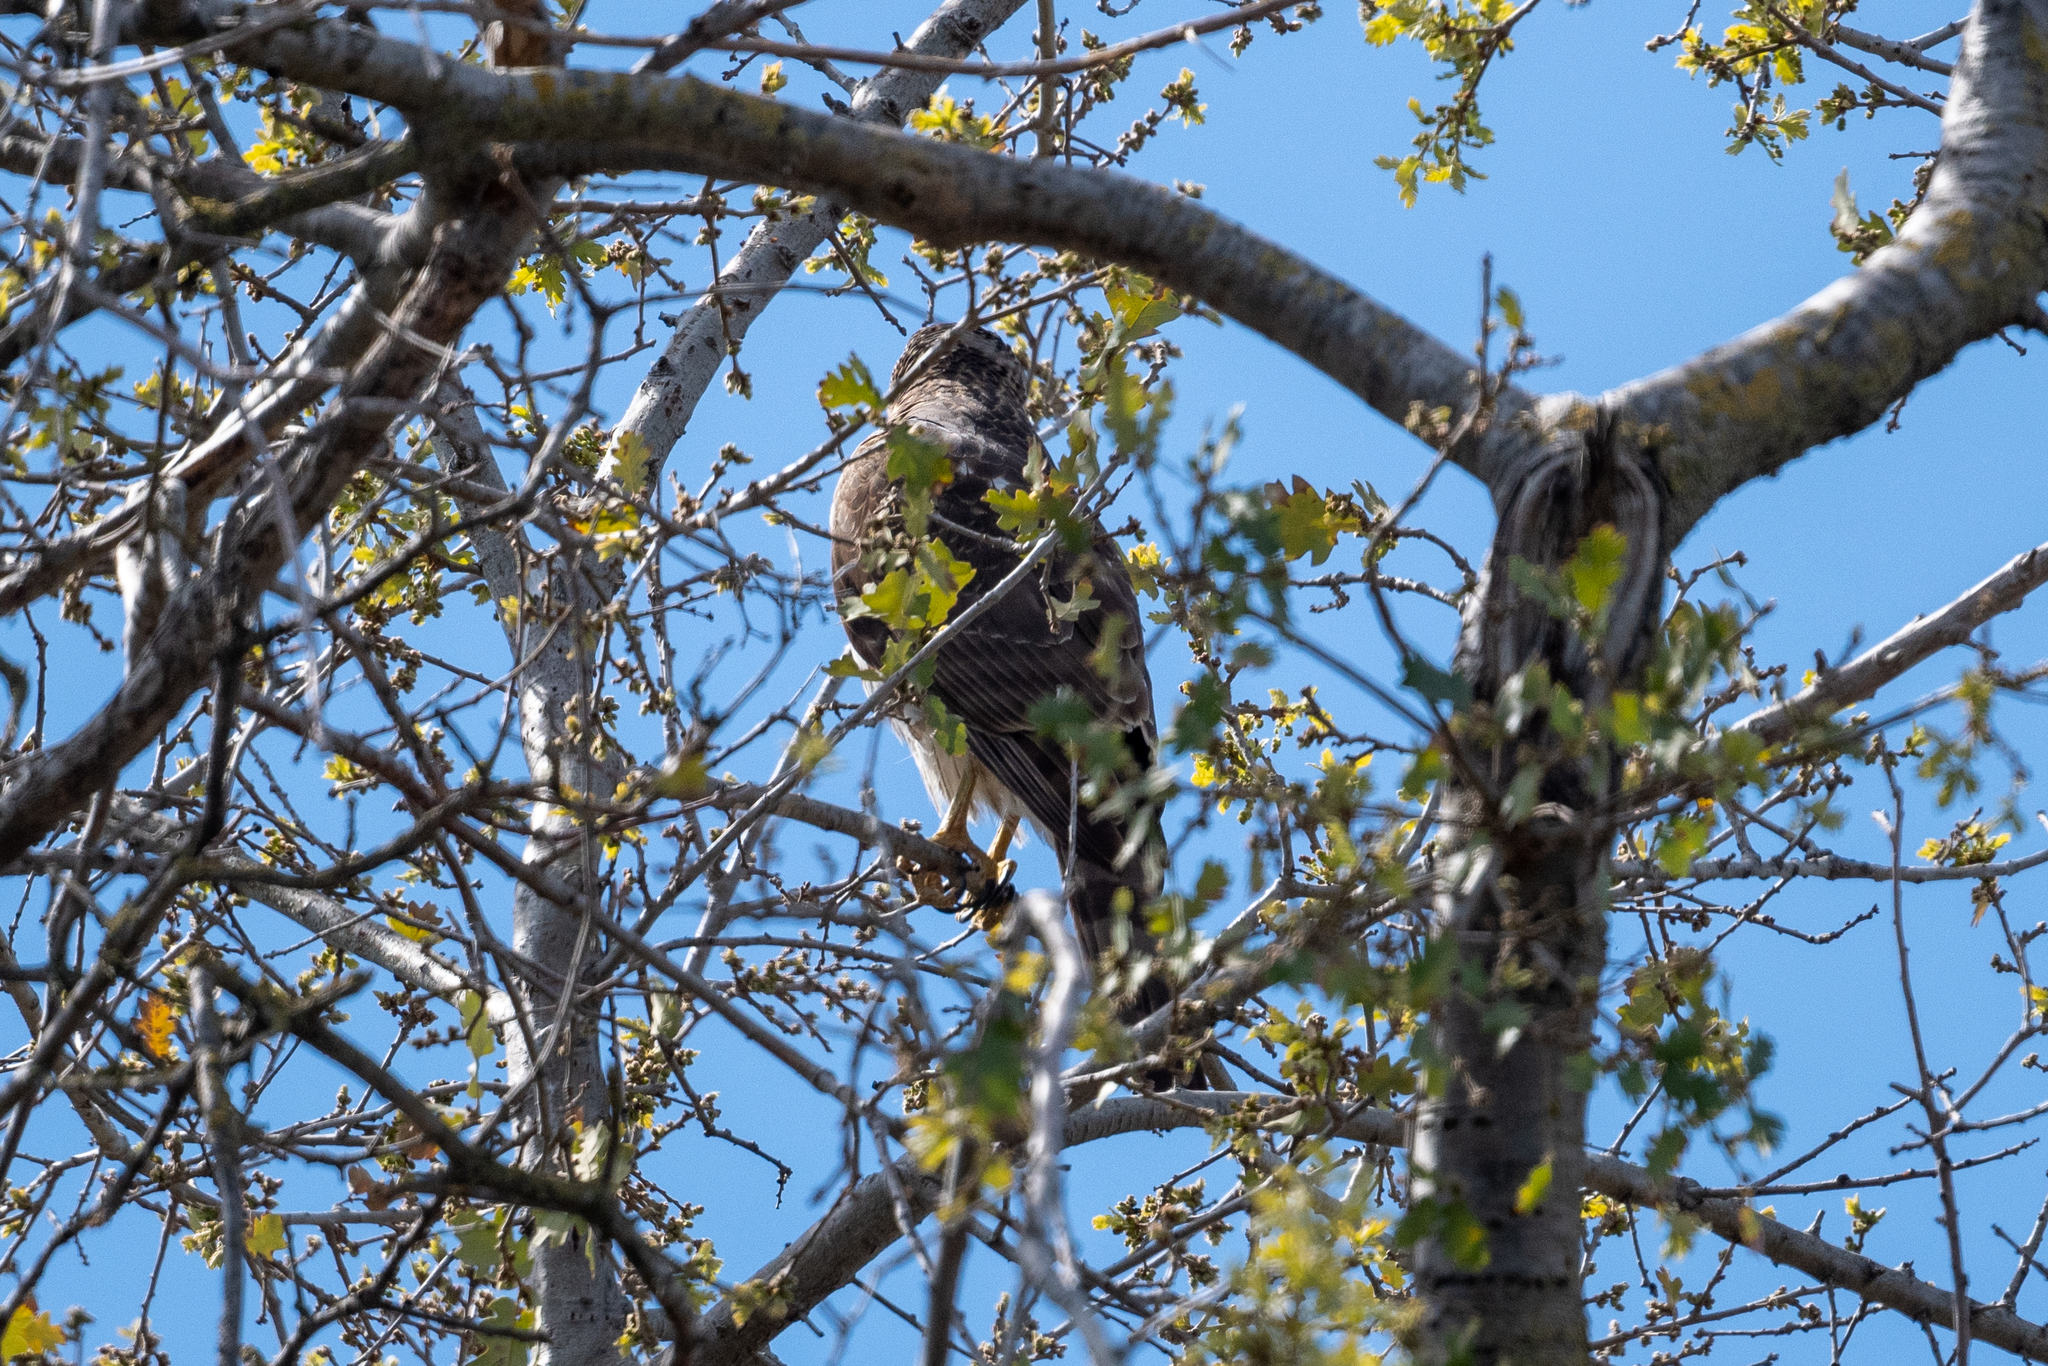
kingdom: Animalia
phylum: Chordata
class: Aves
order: Accipitriformes
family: Accipitridae
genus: Accipiter
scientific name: Accipiter cooperii
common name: Cooper's hawk
